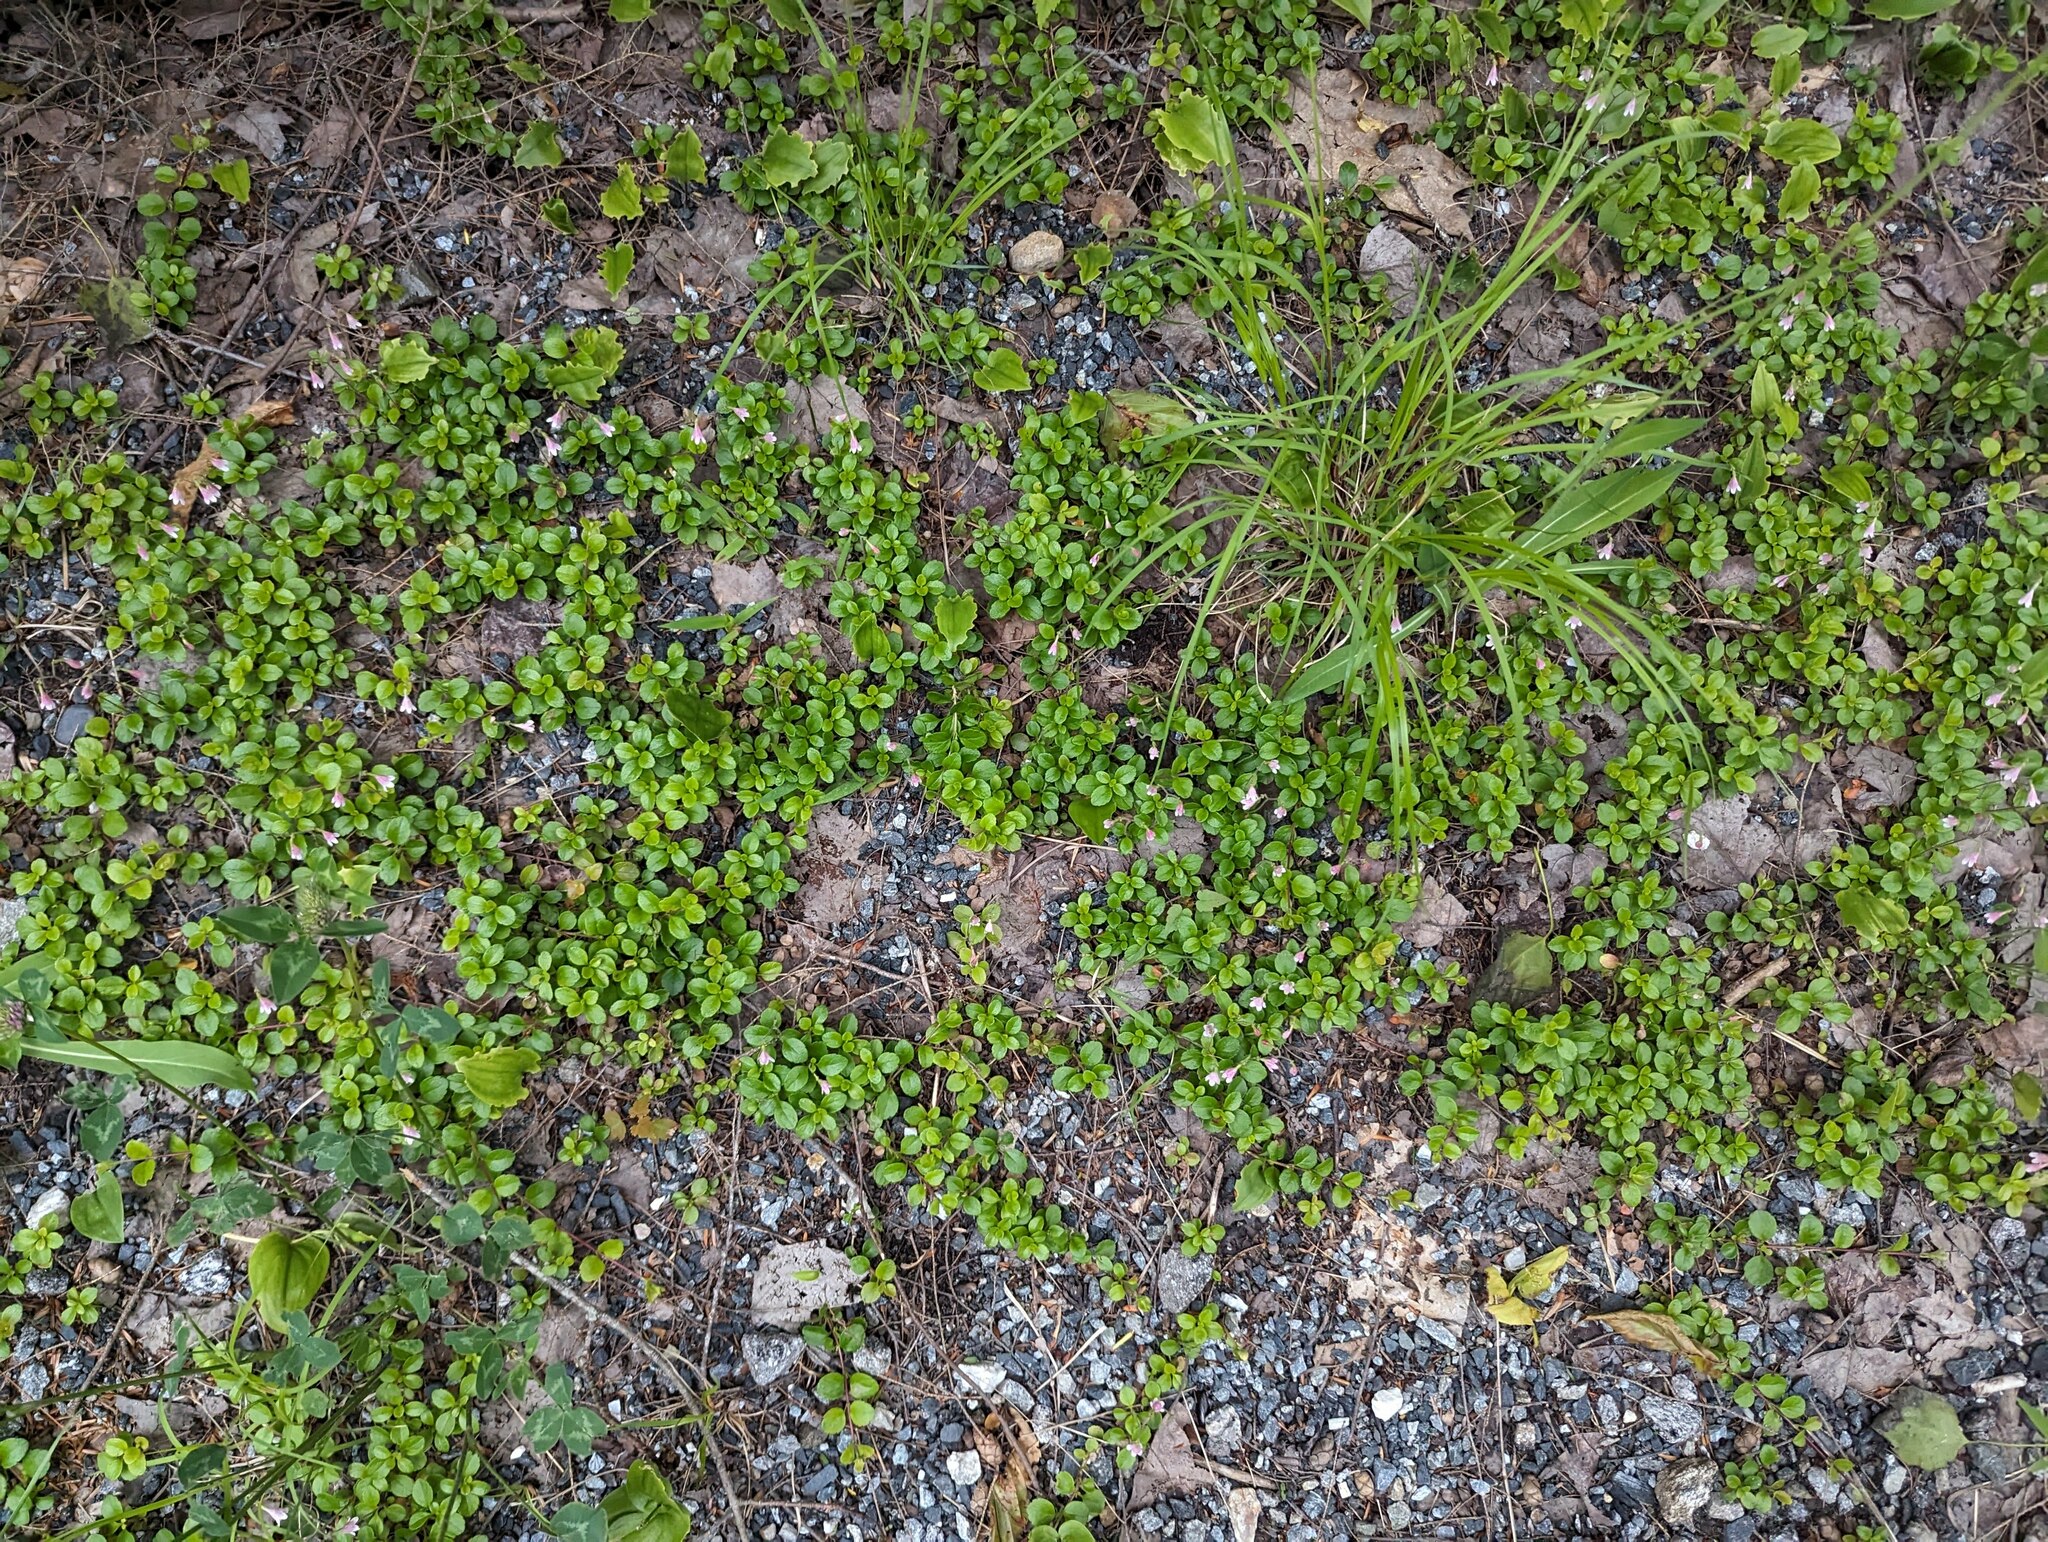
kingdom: Plantae
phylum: Tracheophyta
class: Magnoliopsida
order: Dipsacales
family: Caprifoliaceae
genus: Linnaea
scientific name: Linnaea borealis
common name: Twinflower
